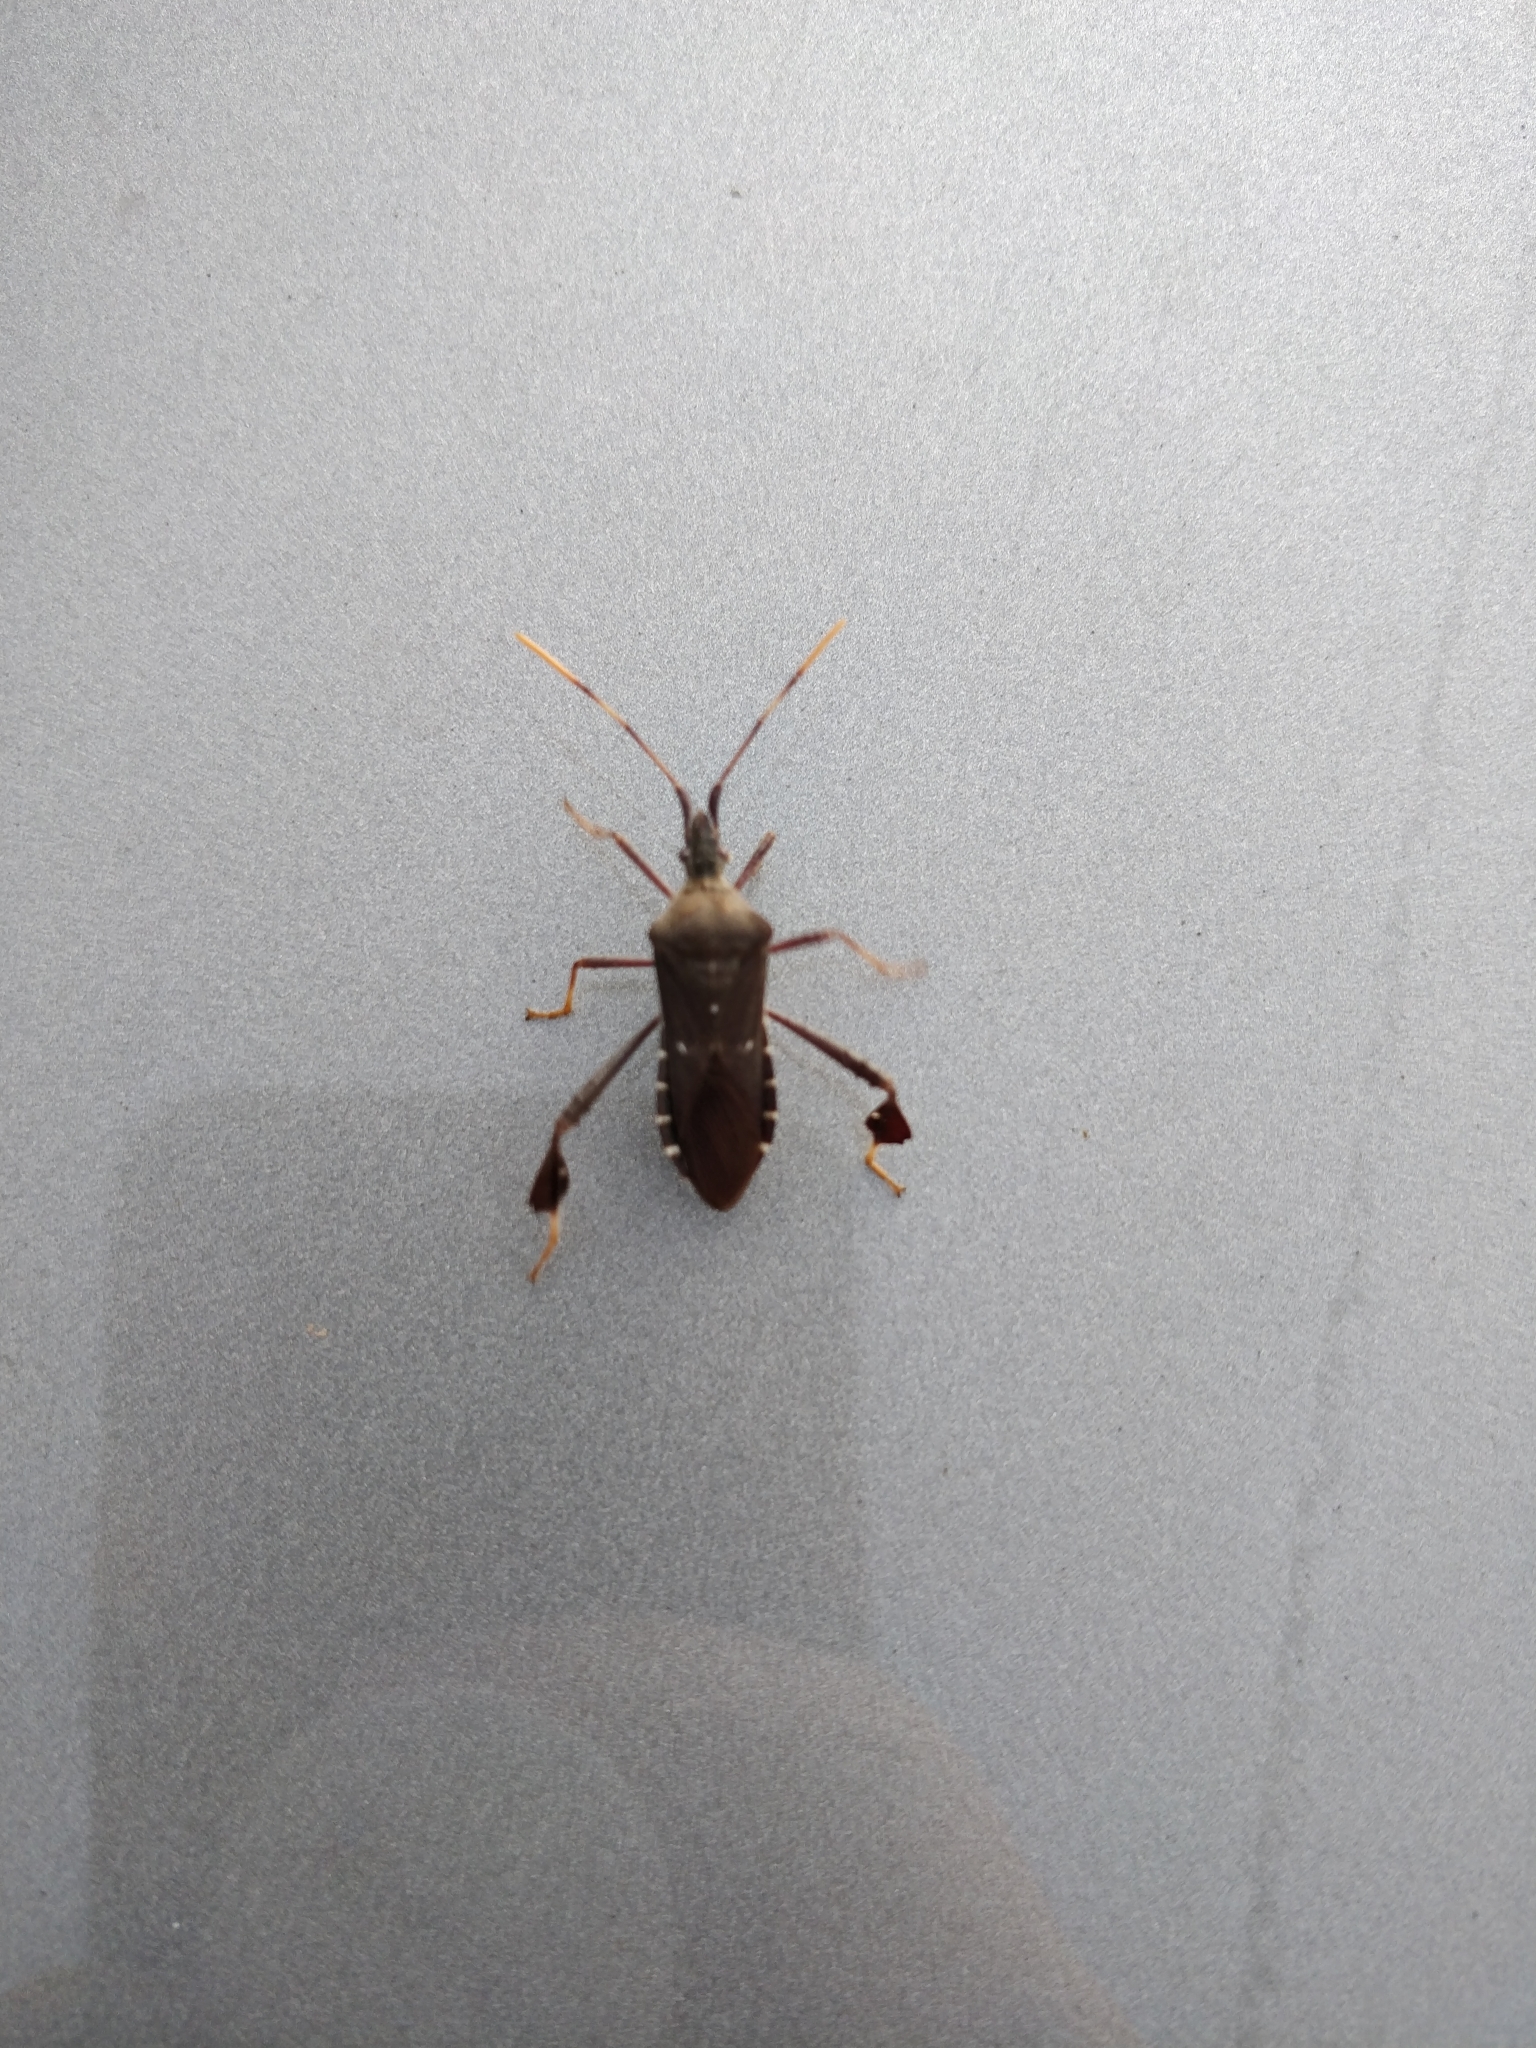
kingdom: Animalia
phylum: Arthropoda
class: Insecta
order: Hemiptera
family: Coreidae
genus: Leptoglossus
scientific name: Leptoglossus oppositus
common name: Northern leaf-footed bug
